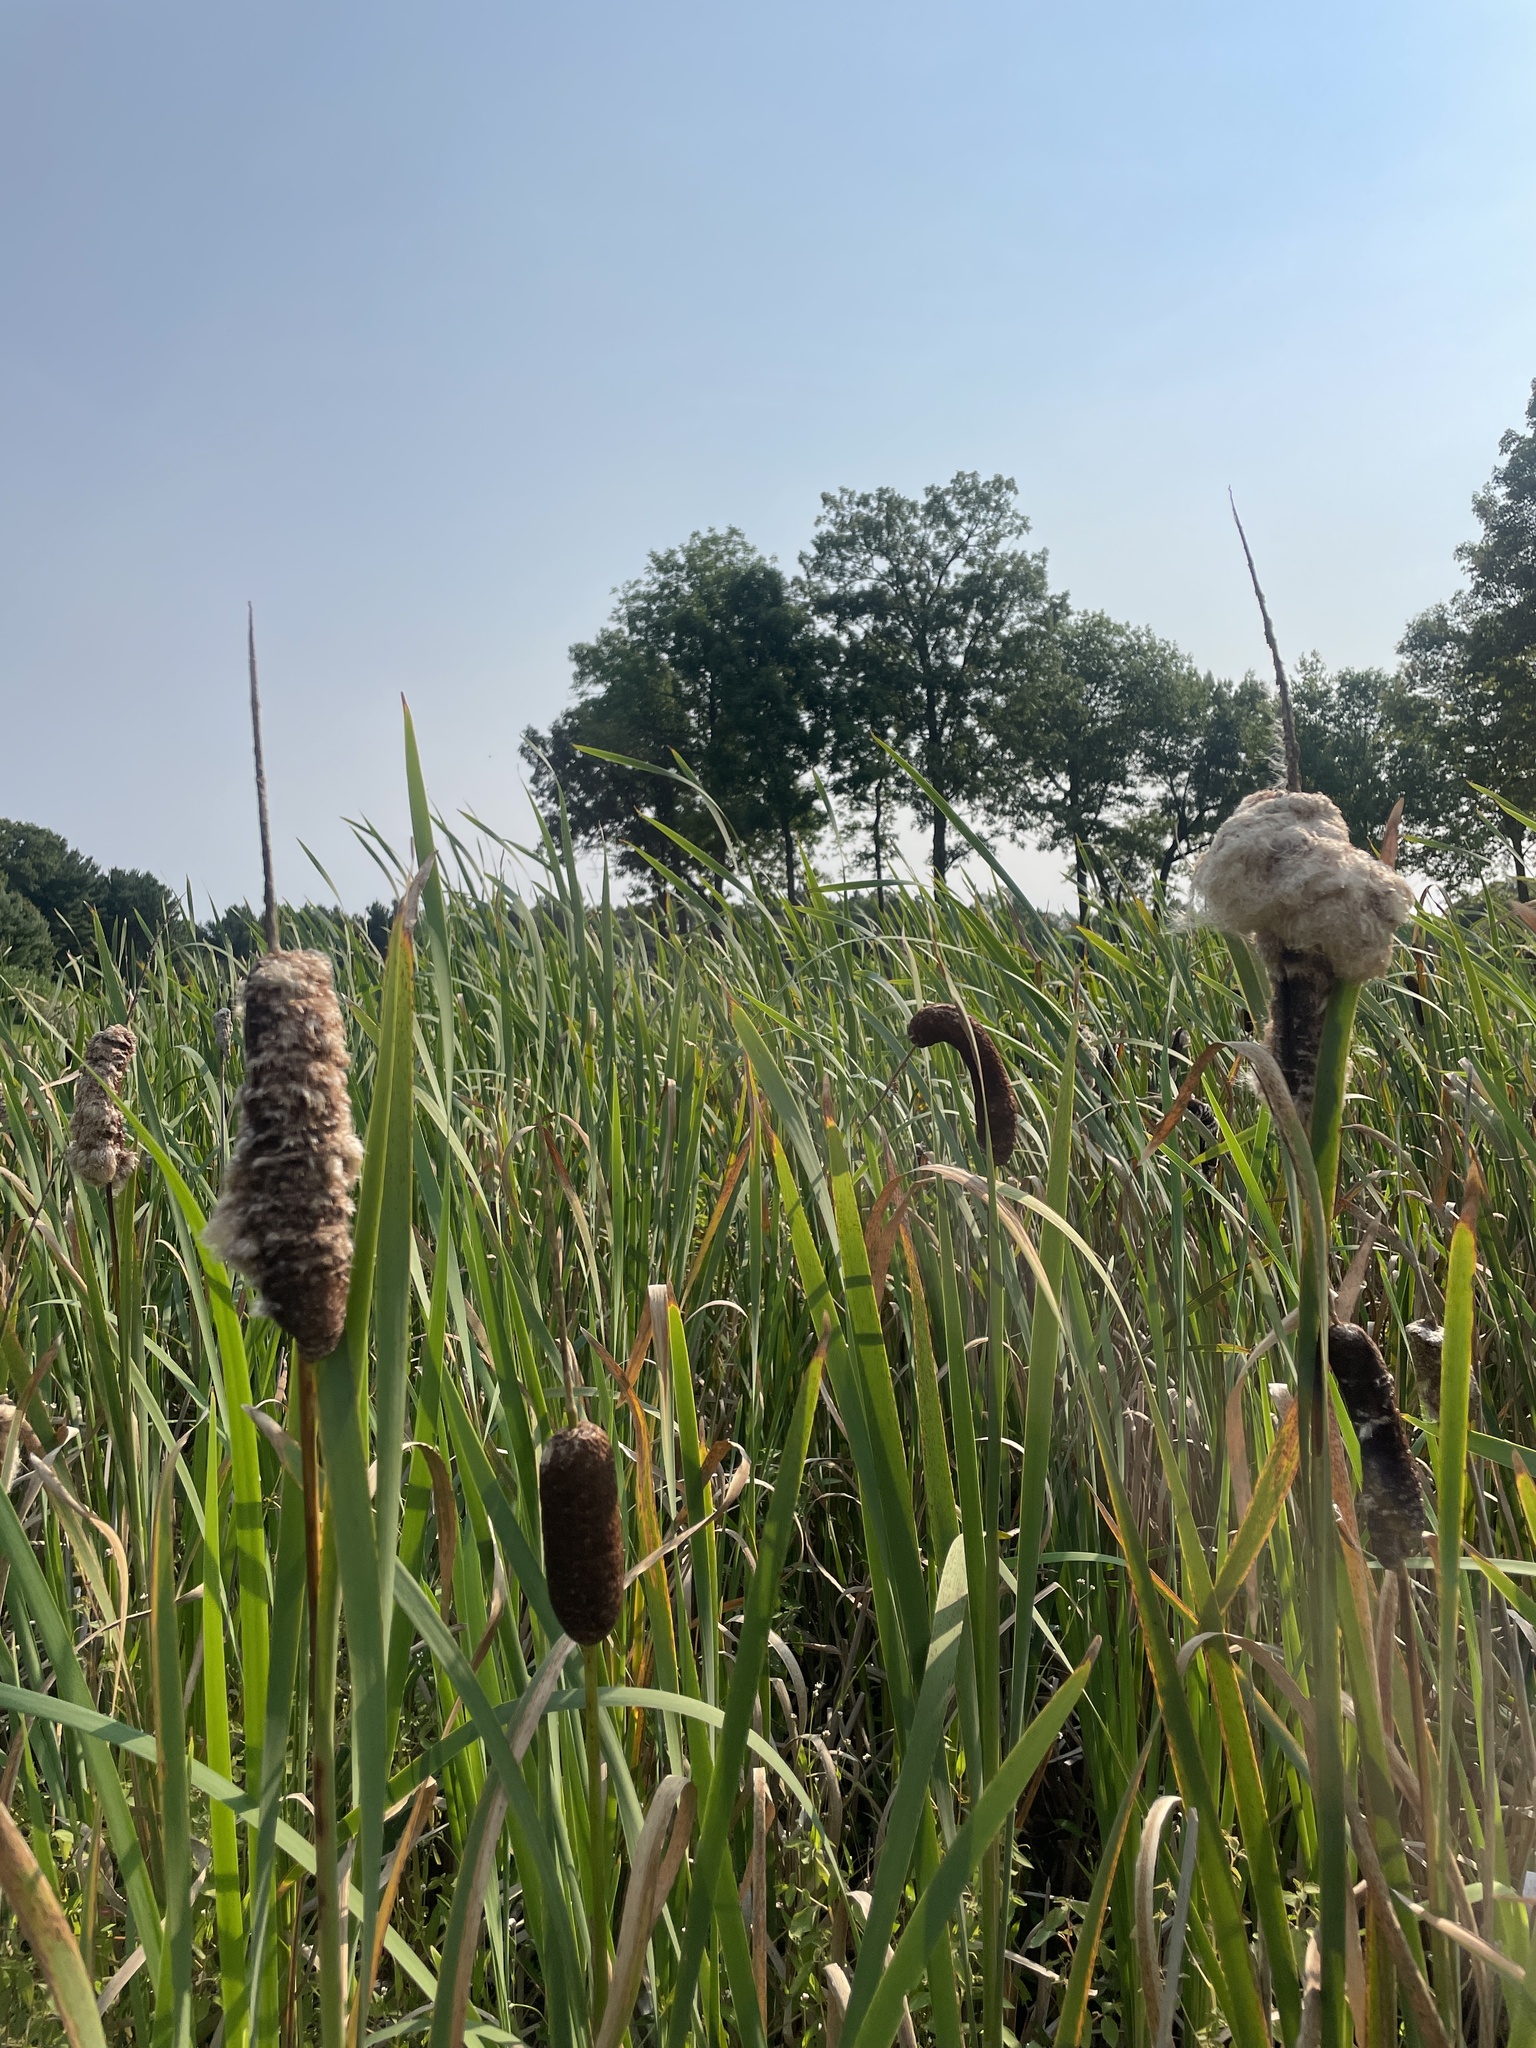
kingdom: Plantae
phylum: Tracheophyta
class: Liliopsida
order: Poales
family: Typhaceae
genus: Typha
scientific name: Typha latifolia
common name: Broadleaf cattail
